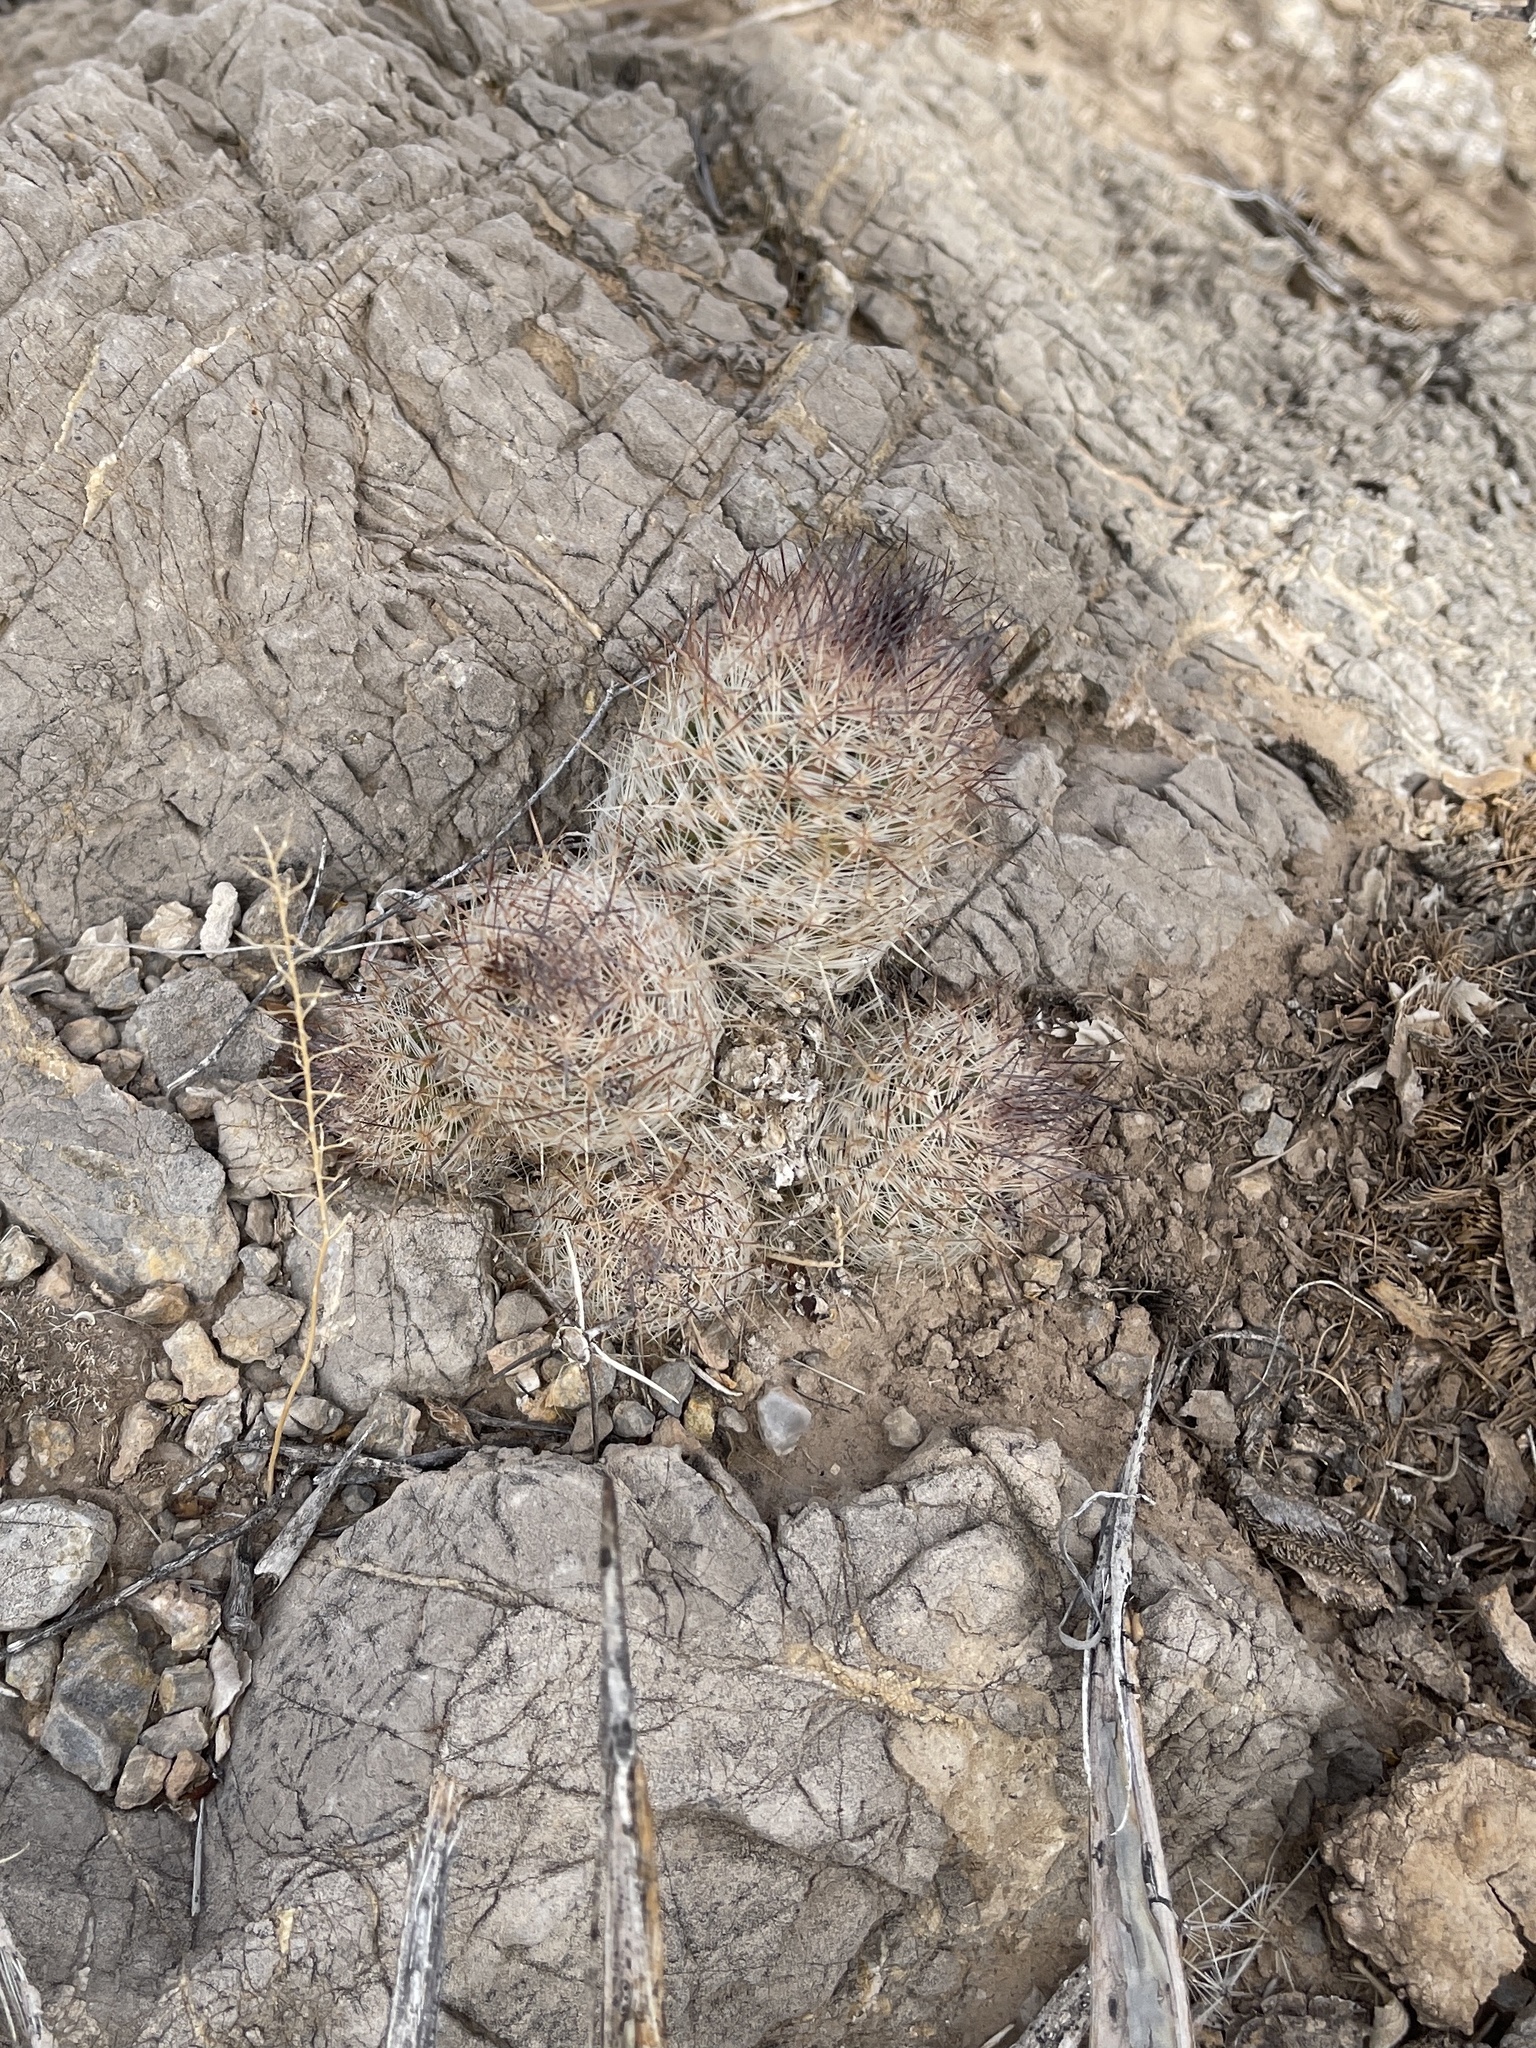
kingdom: Plantae
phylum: Tracheophyta
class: Magnoliopsida
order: Caryophyllales
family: Cactaceae
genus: Pelecyphora
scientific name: Pelecyphora tuberculosa
